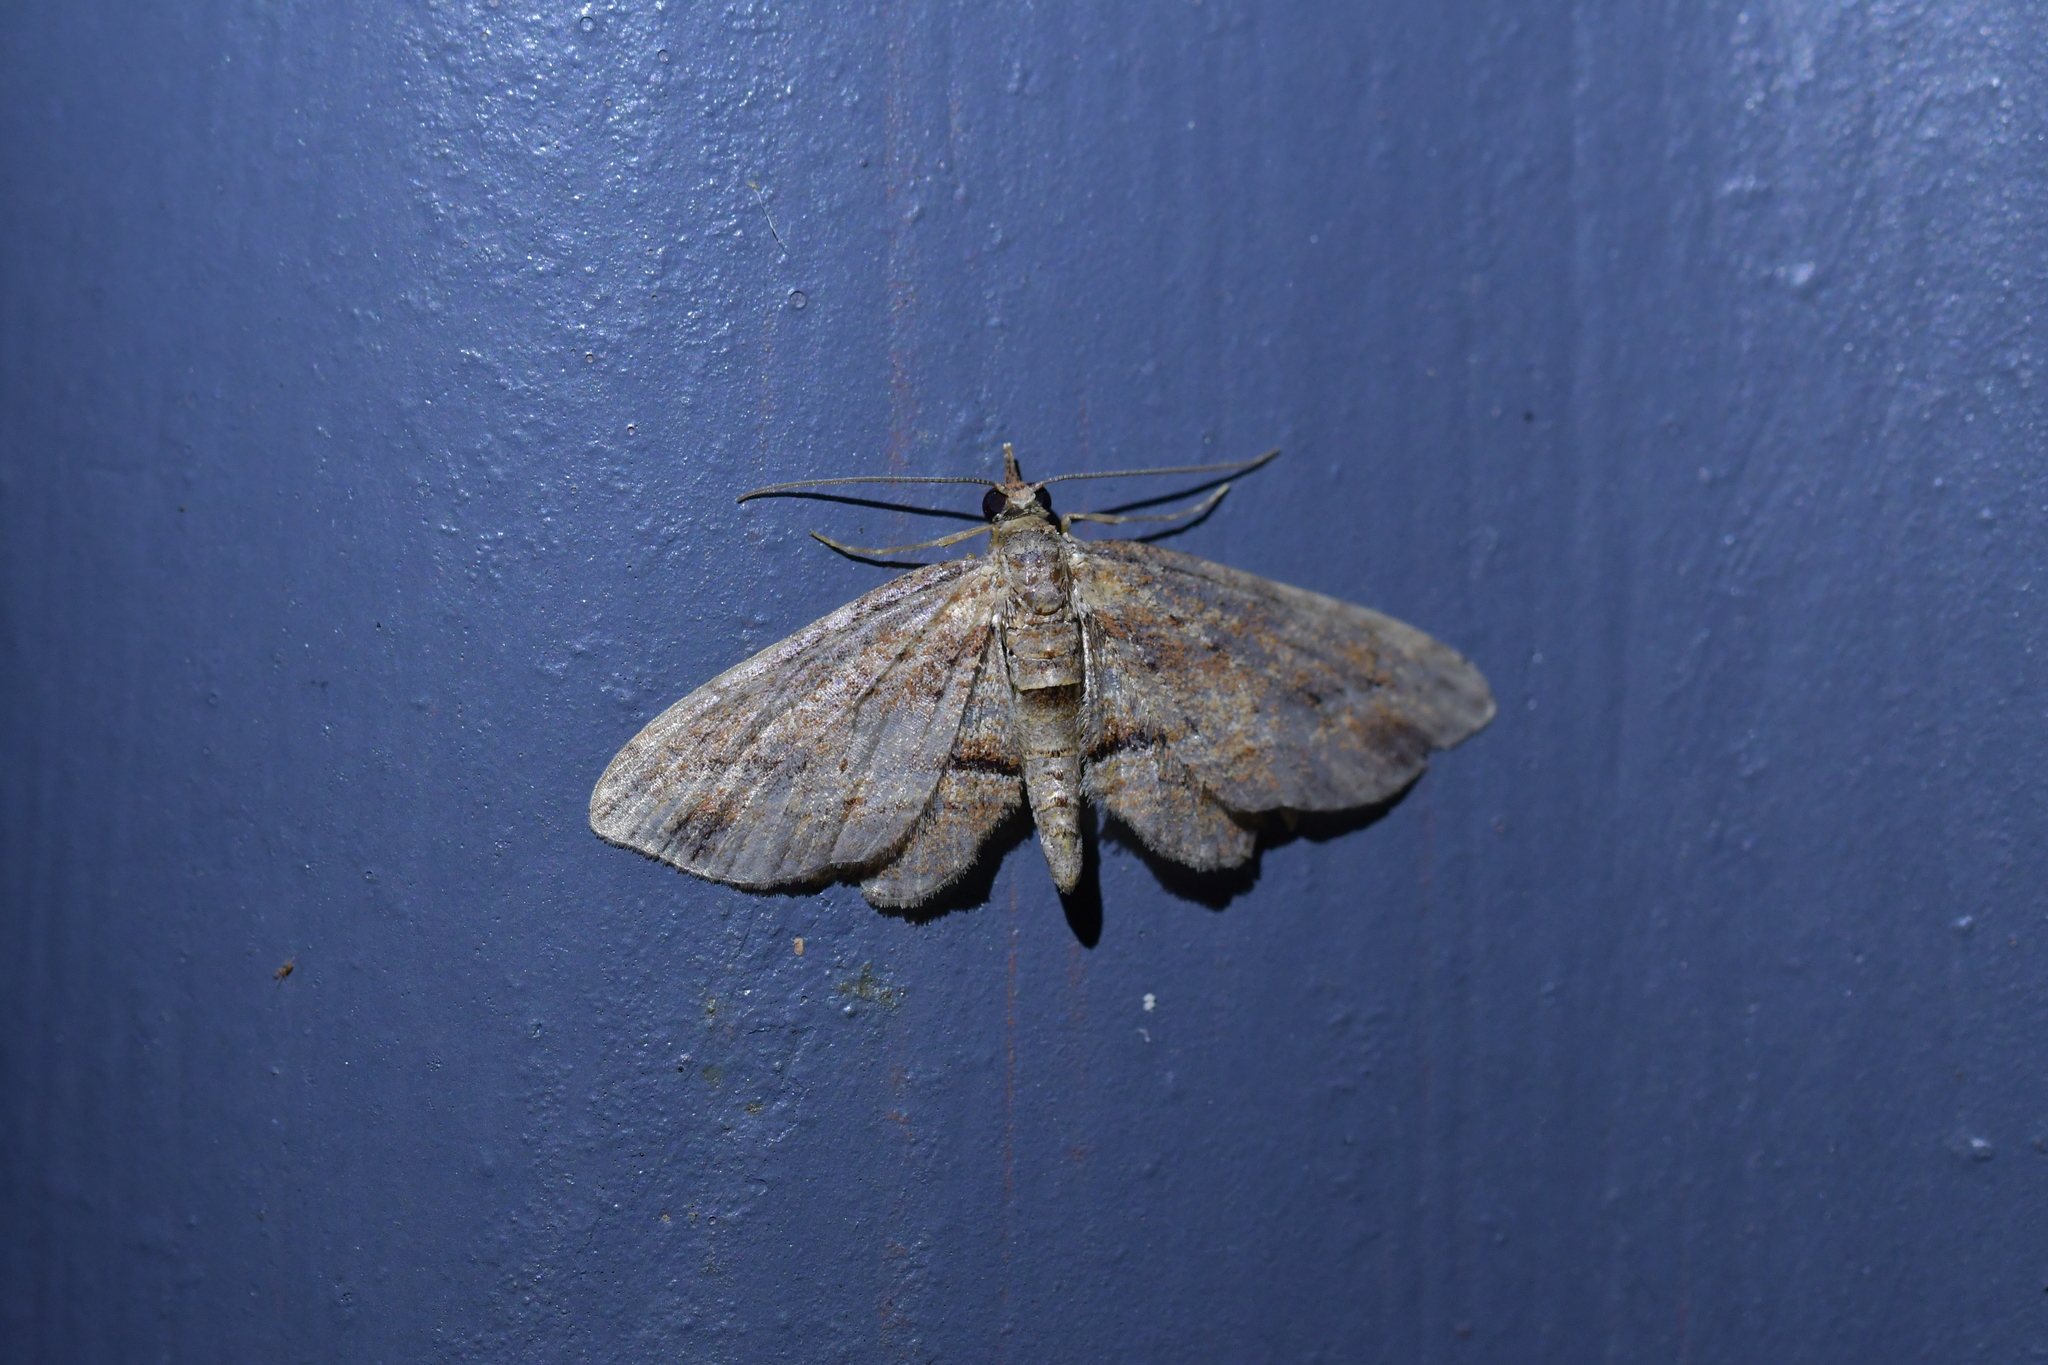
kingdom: Animalia
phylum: Arthropoda
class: Insecta
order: Lepidoptera
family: Geometridae
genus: Chloroclystis
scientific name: Chloroclystis filata
